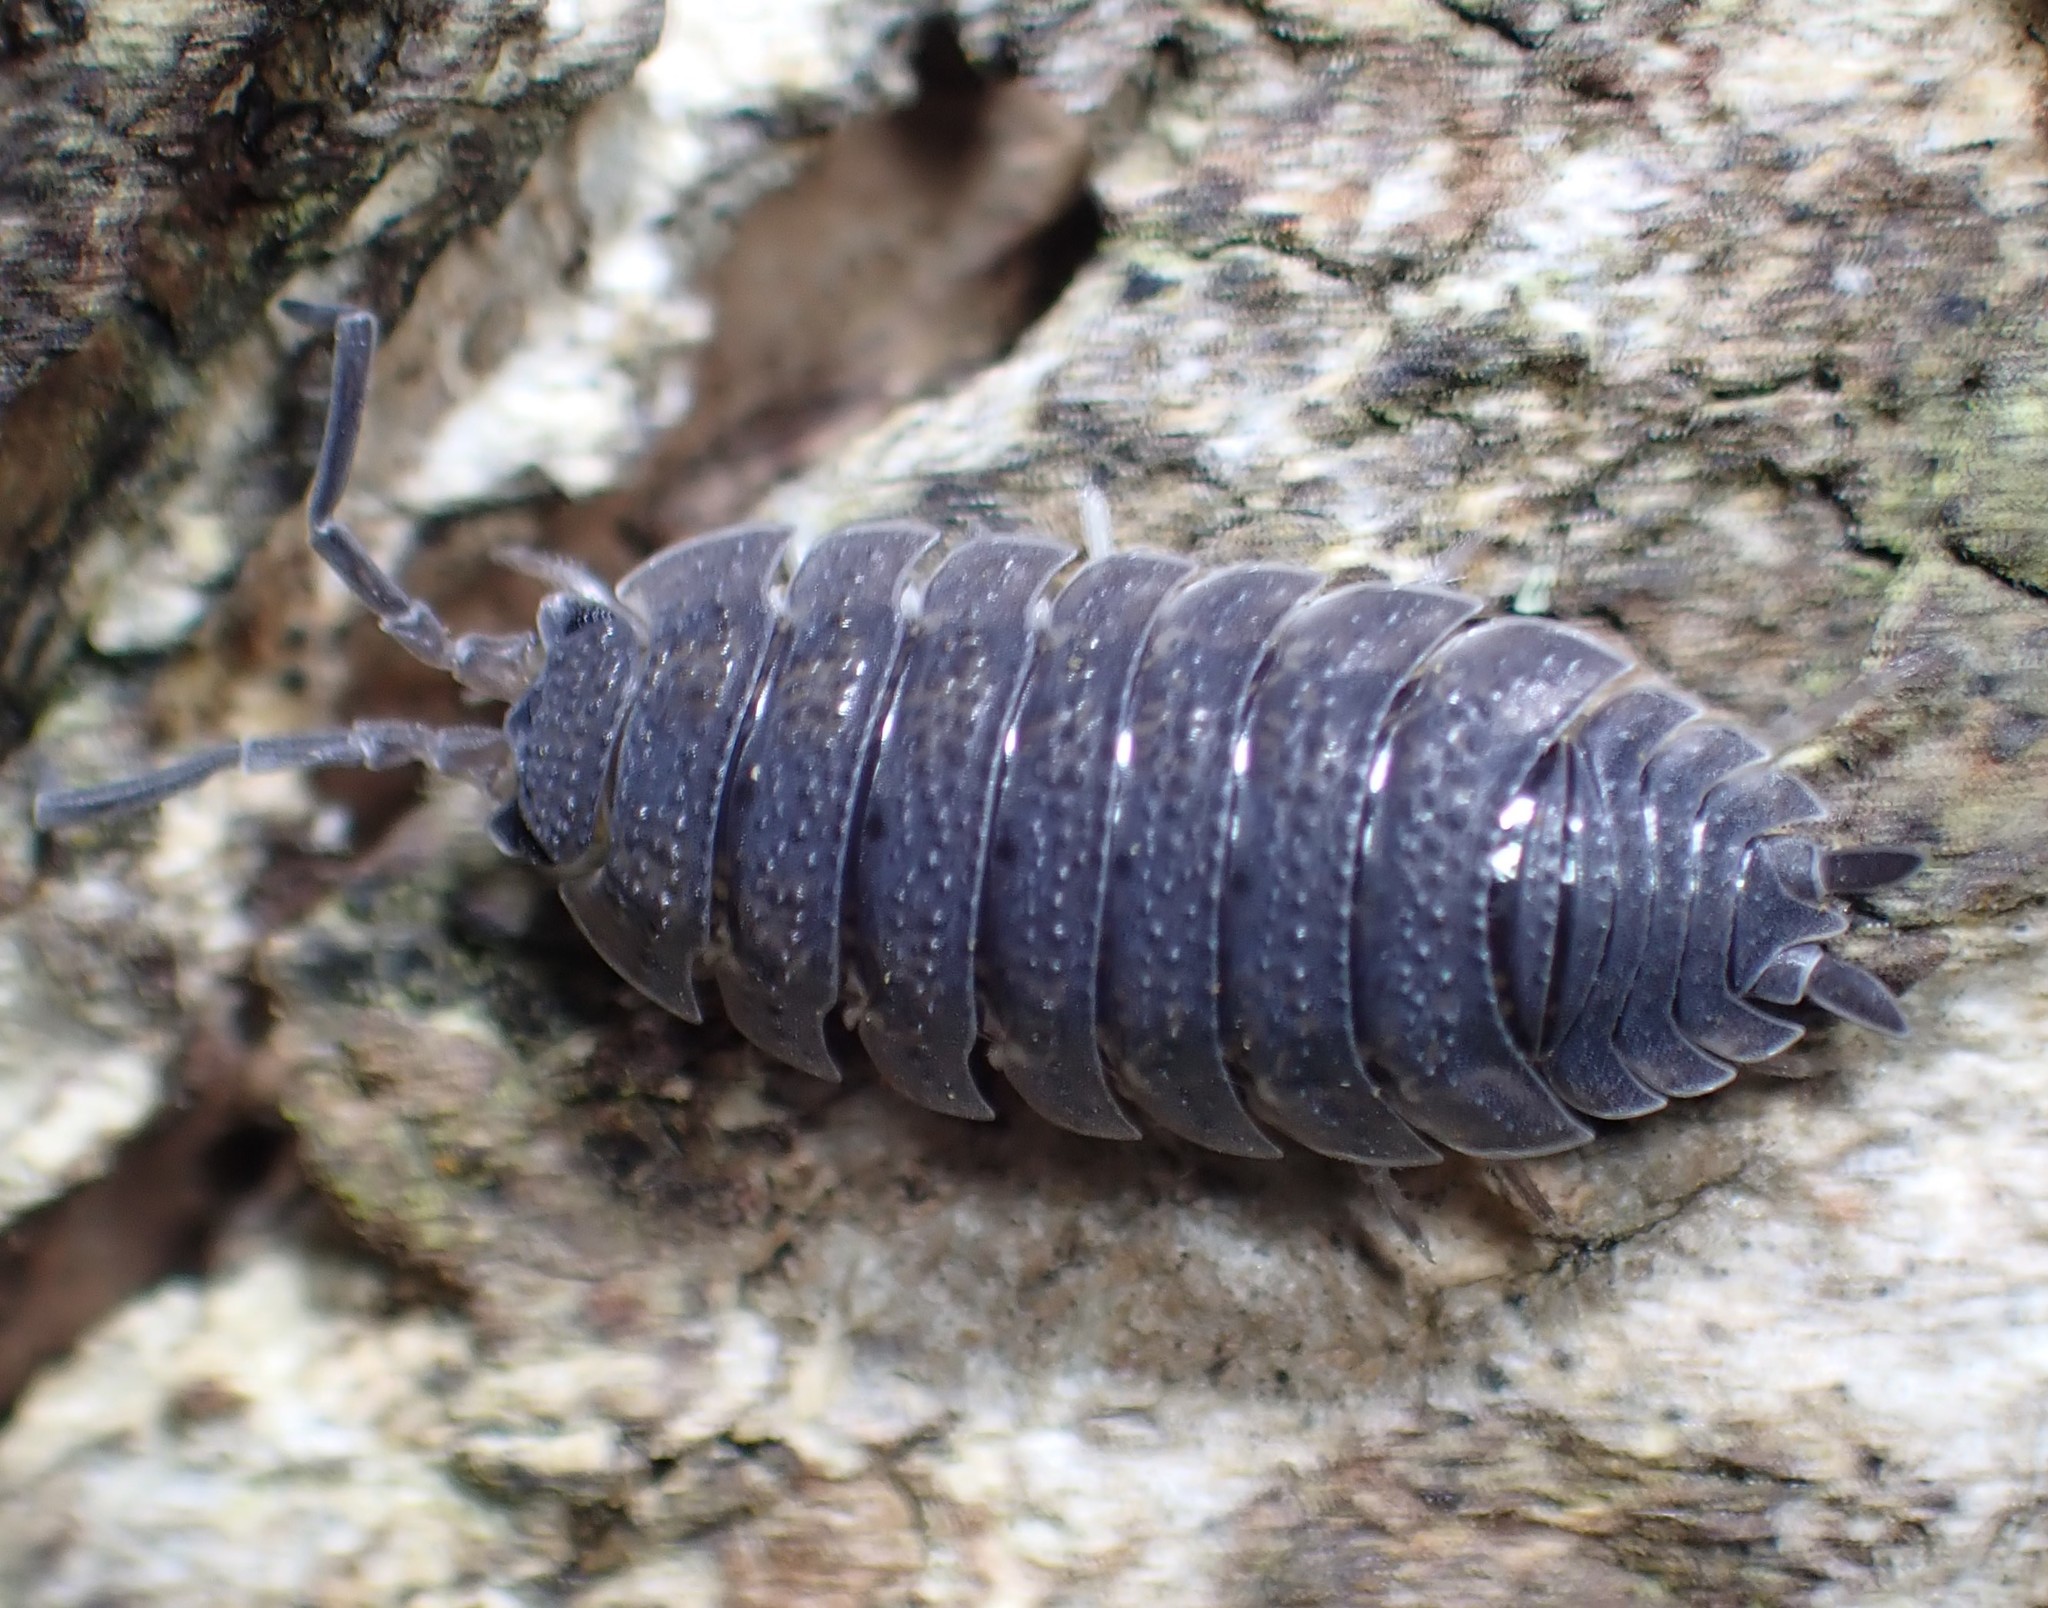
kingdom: Animalia
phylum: Arthropoda
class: Malacostraca
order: Isopoda
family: Porcellionidae
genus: Porcellio
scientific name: Porcellio scaber
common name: Common rough woodlouse
